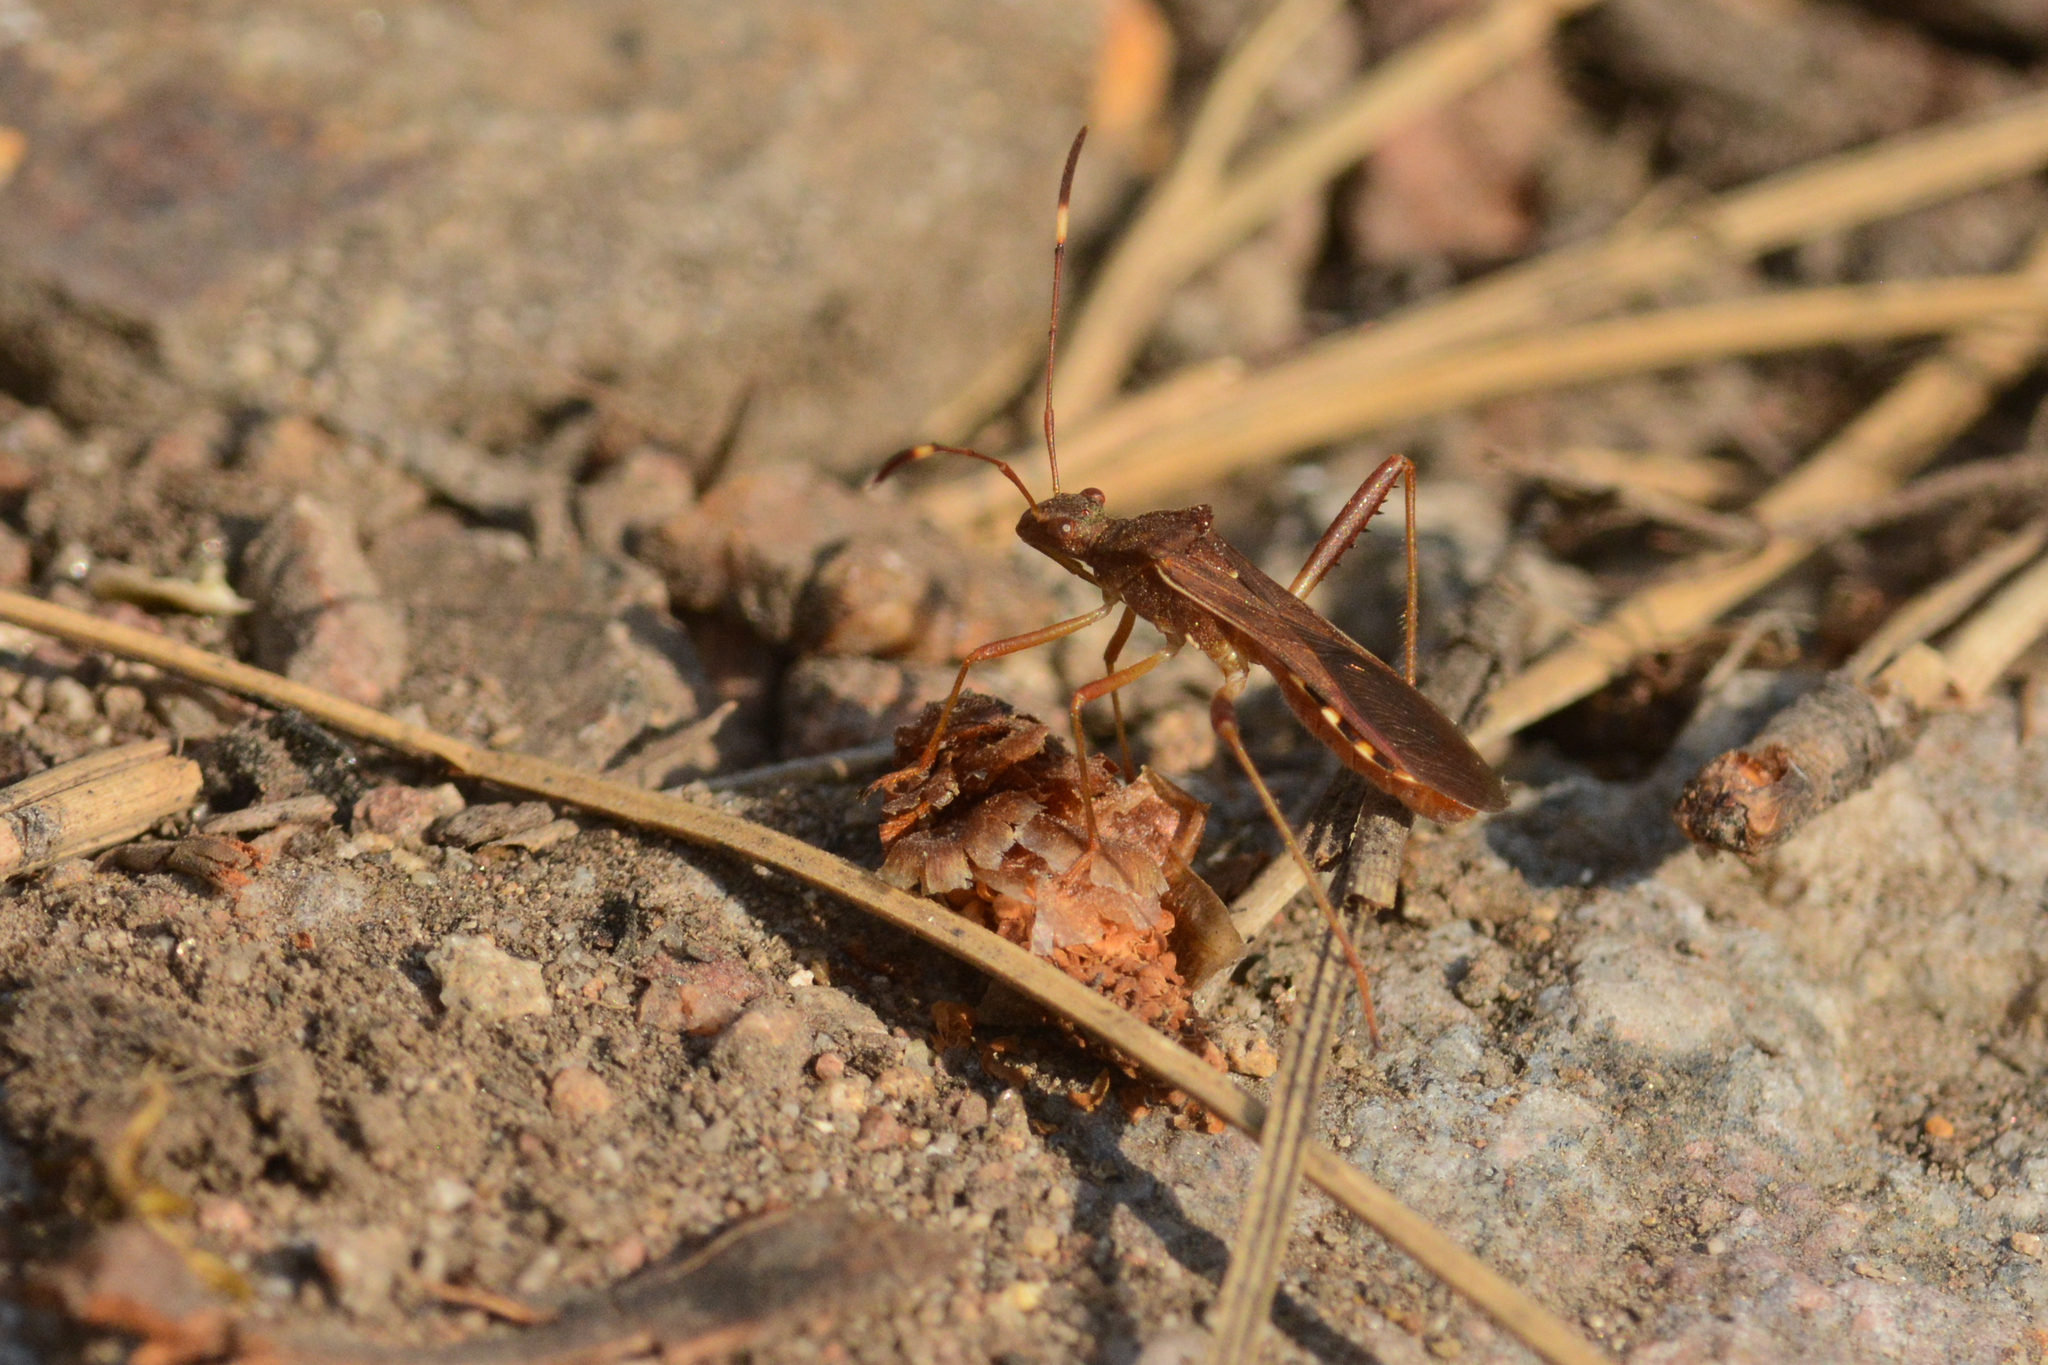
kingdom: Animalia
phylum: Arthropoda
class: Insecta
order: Hemiptera
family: Alydidae
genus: Megalotomus
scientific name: Megalotomus quinquespinosus
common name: Lupine bug
